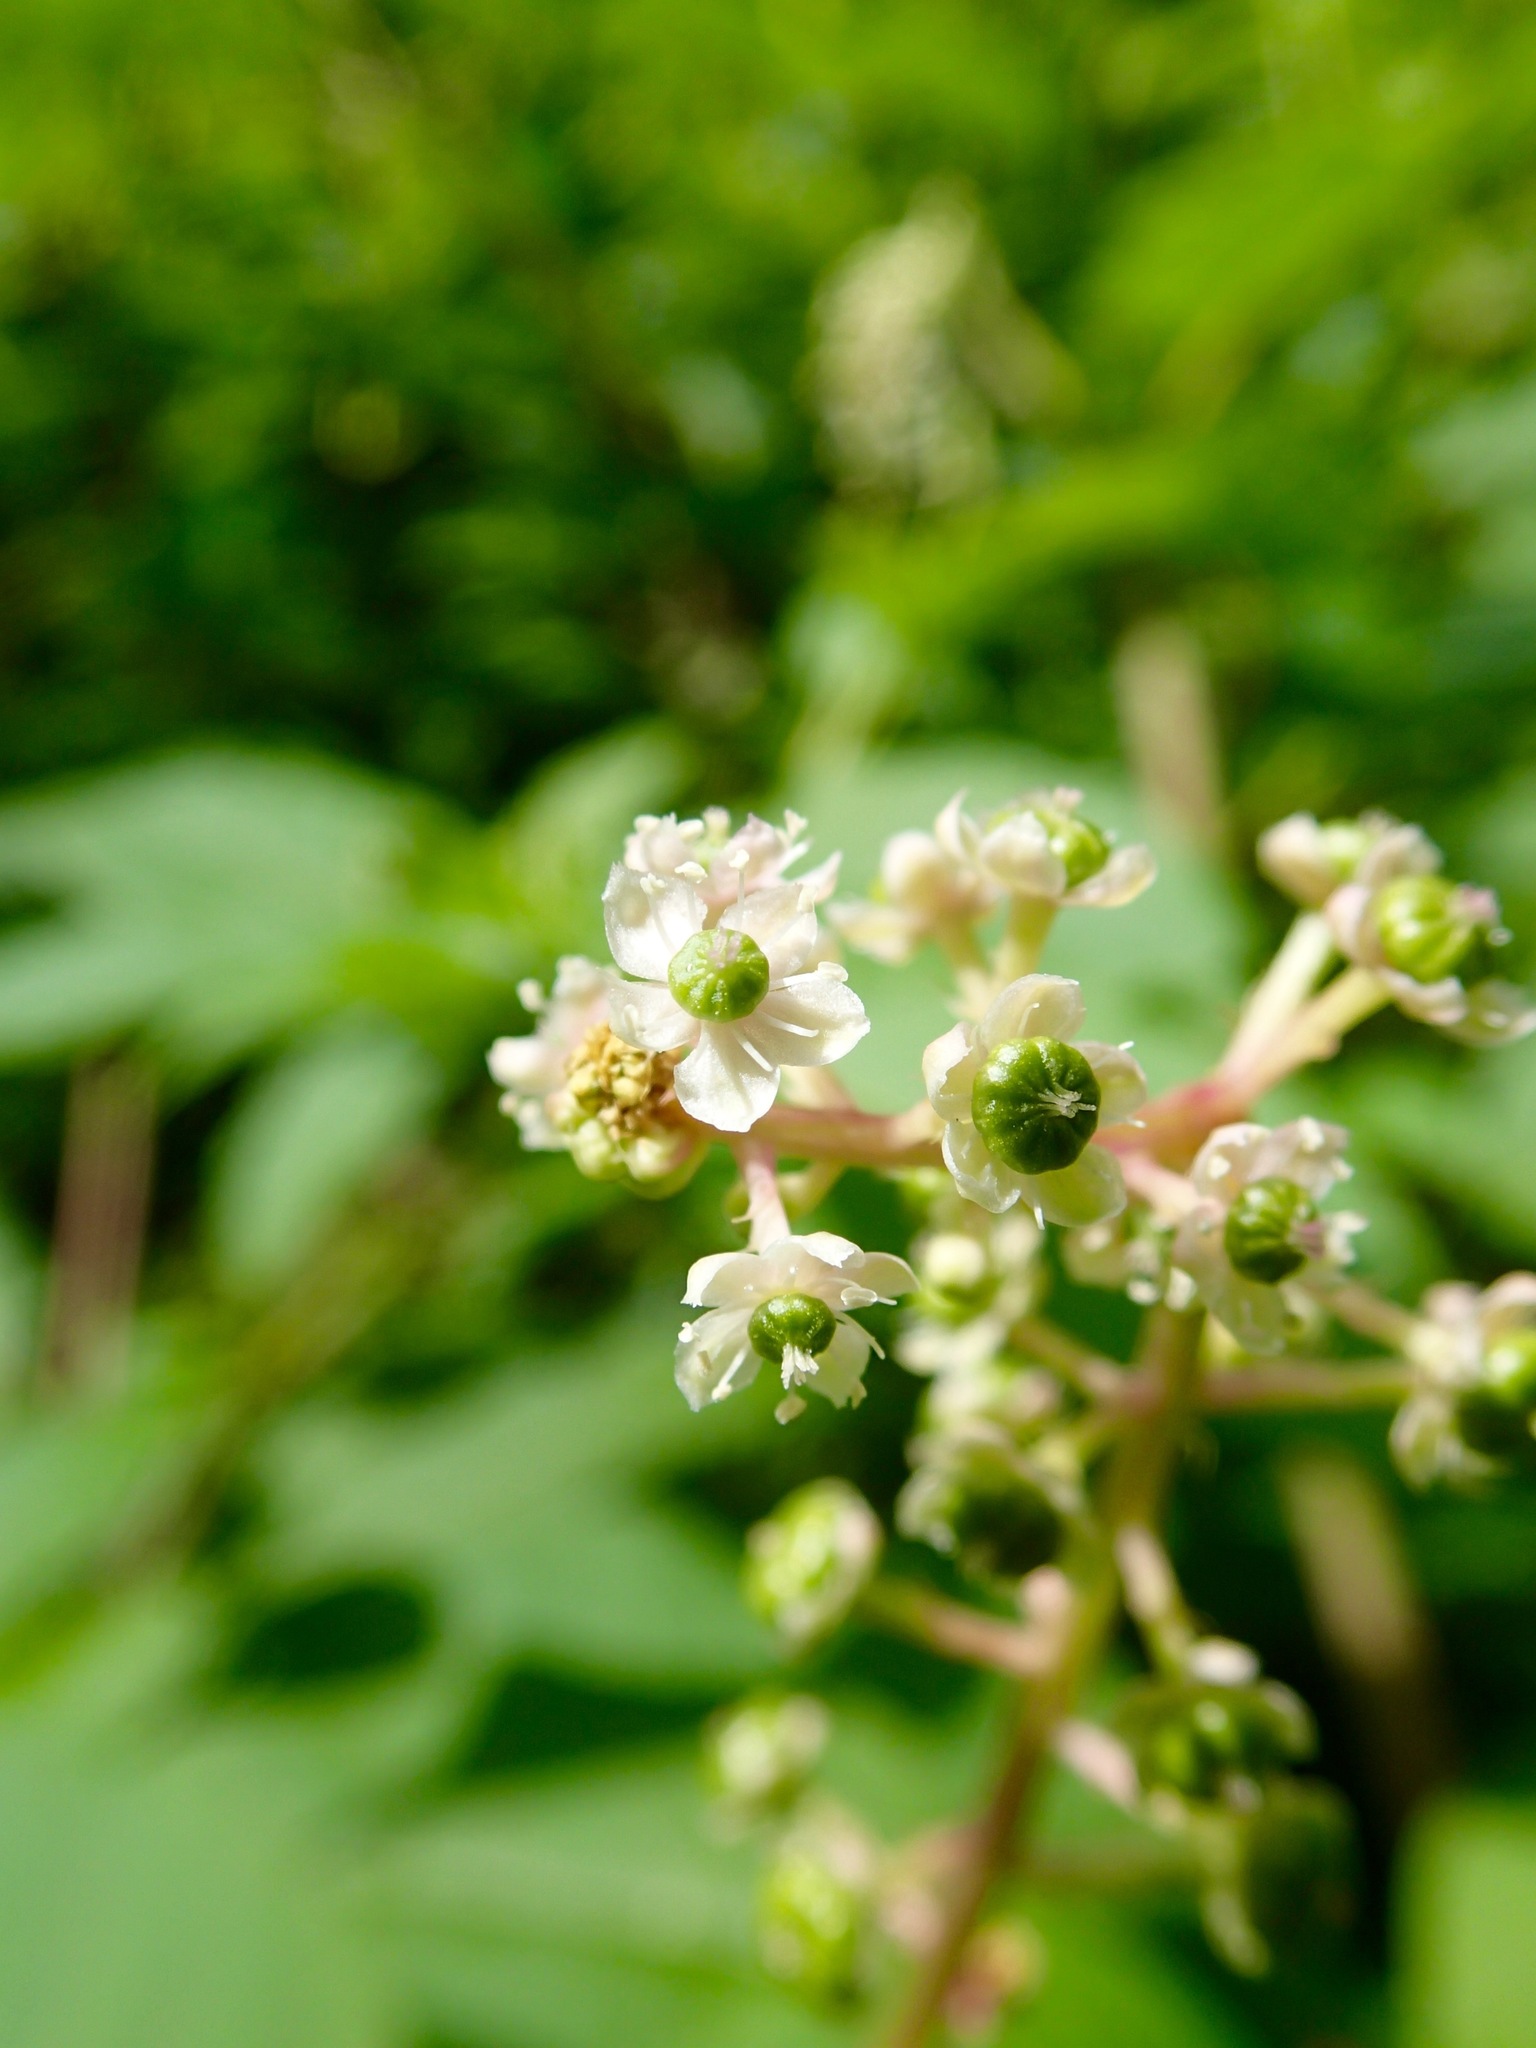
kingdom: Plantae
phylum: Tracheophyta
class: Magnoliopsida
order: Caryophyllales
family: Phytolaccaceae
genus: Phytolacca
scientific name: Phytolacca americana
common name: American pokeweed
